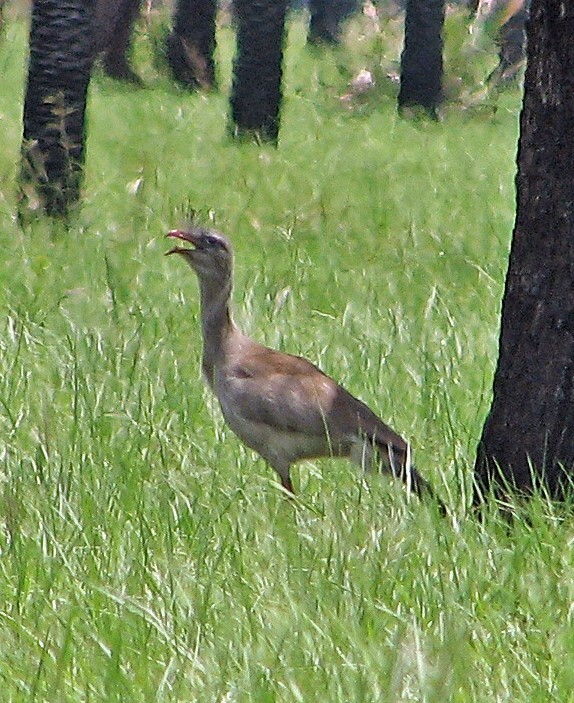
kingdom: Animalia
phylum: Chordata
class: Aves
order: Cariamiformes
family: Cariamidae
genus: Cariama
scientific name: Cariama cristata
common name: Red-legged seriema
